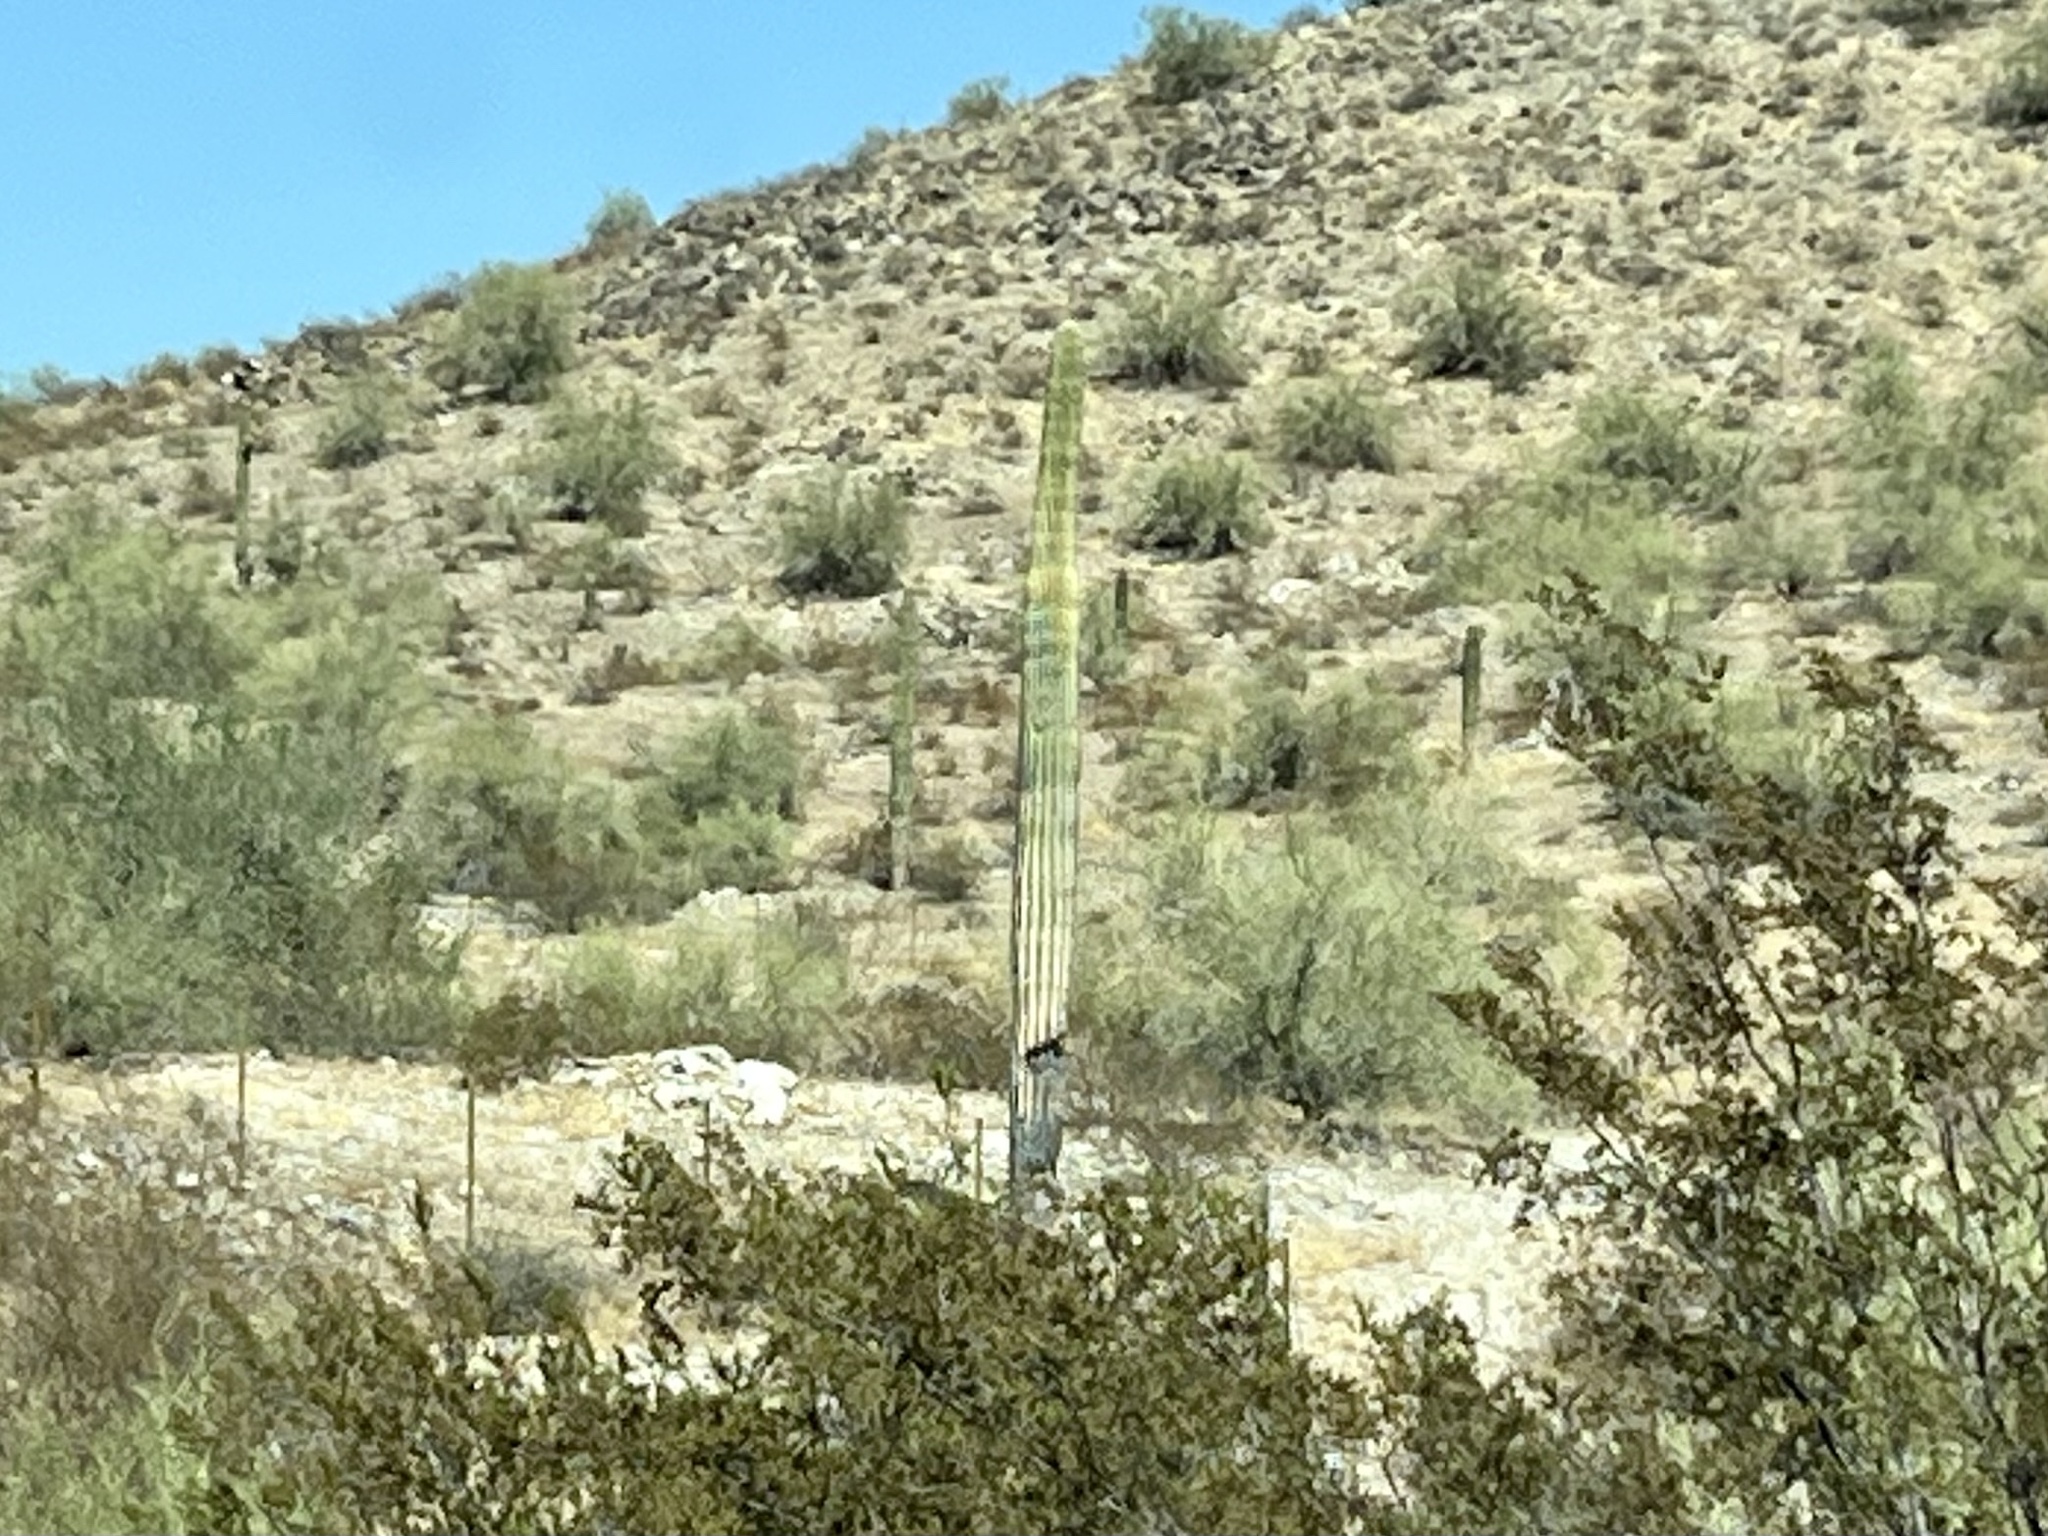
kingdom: Plantae
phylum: Tracheophyta
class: Magnoliopsida
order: Caryophyllales
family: Cactaceae
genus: Carnegiea
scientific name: Carnegiea gigantea
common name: Saguaro
